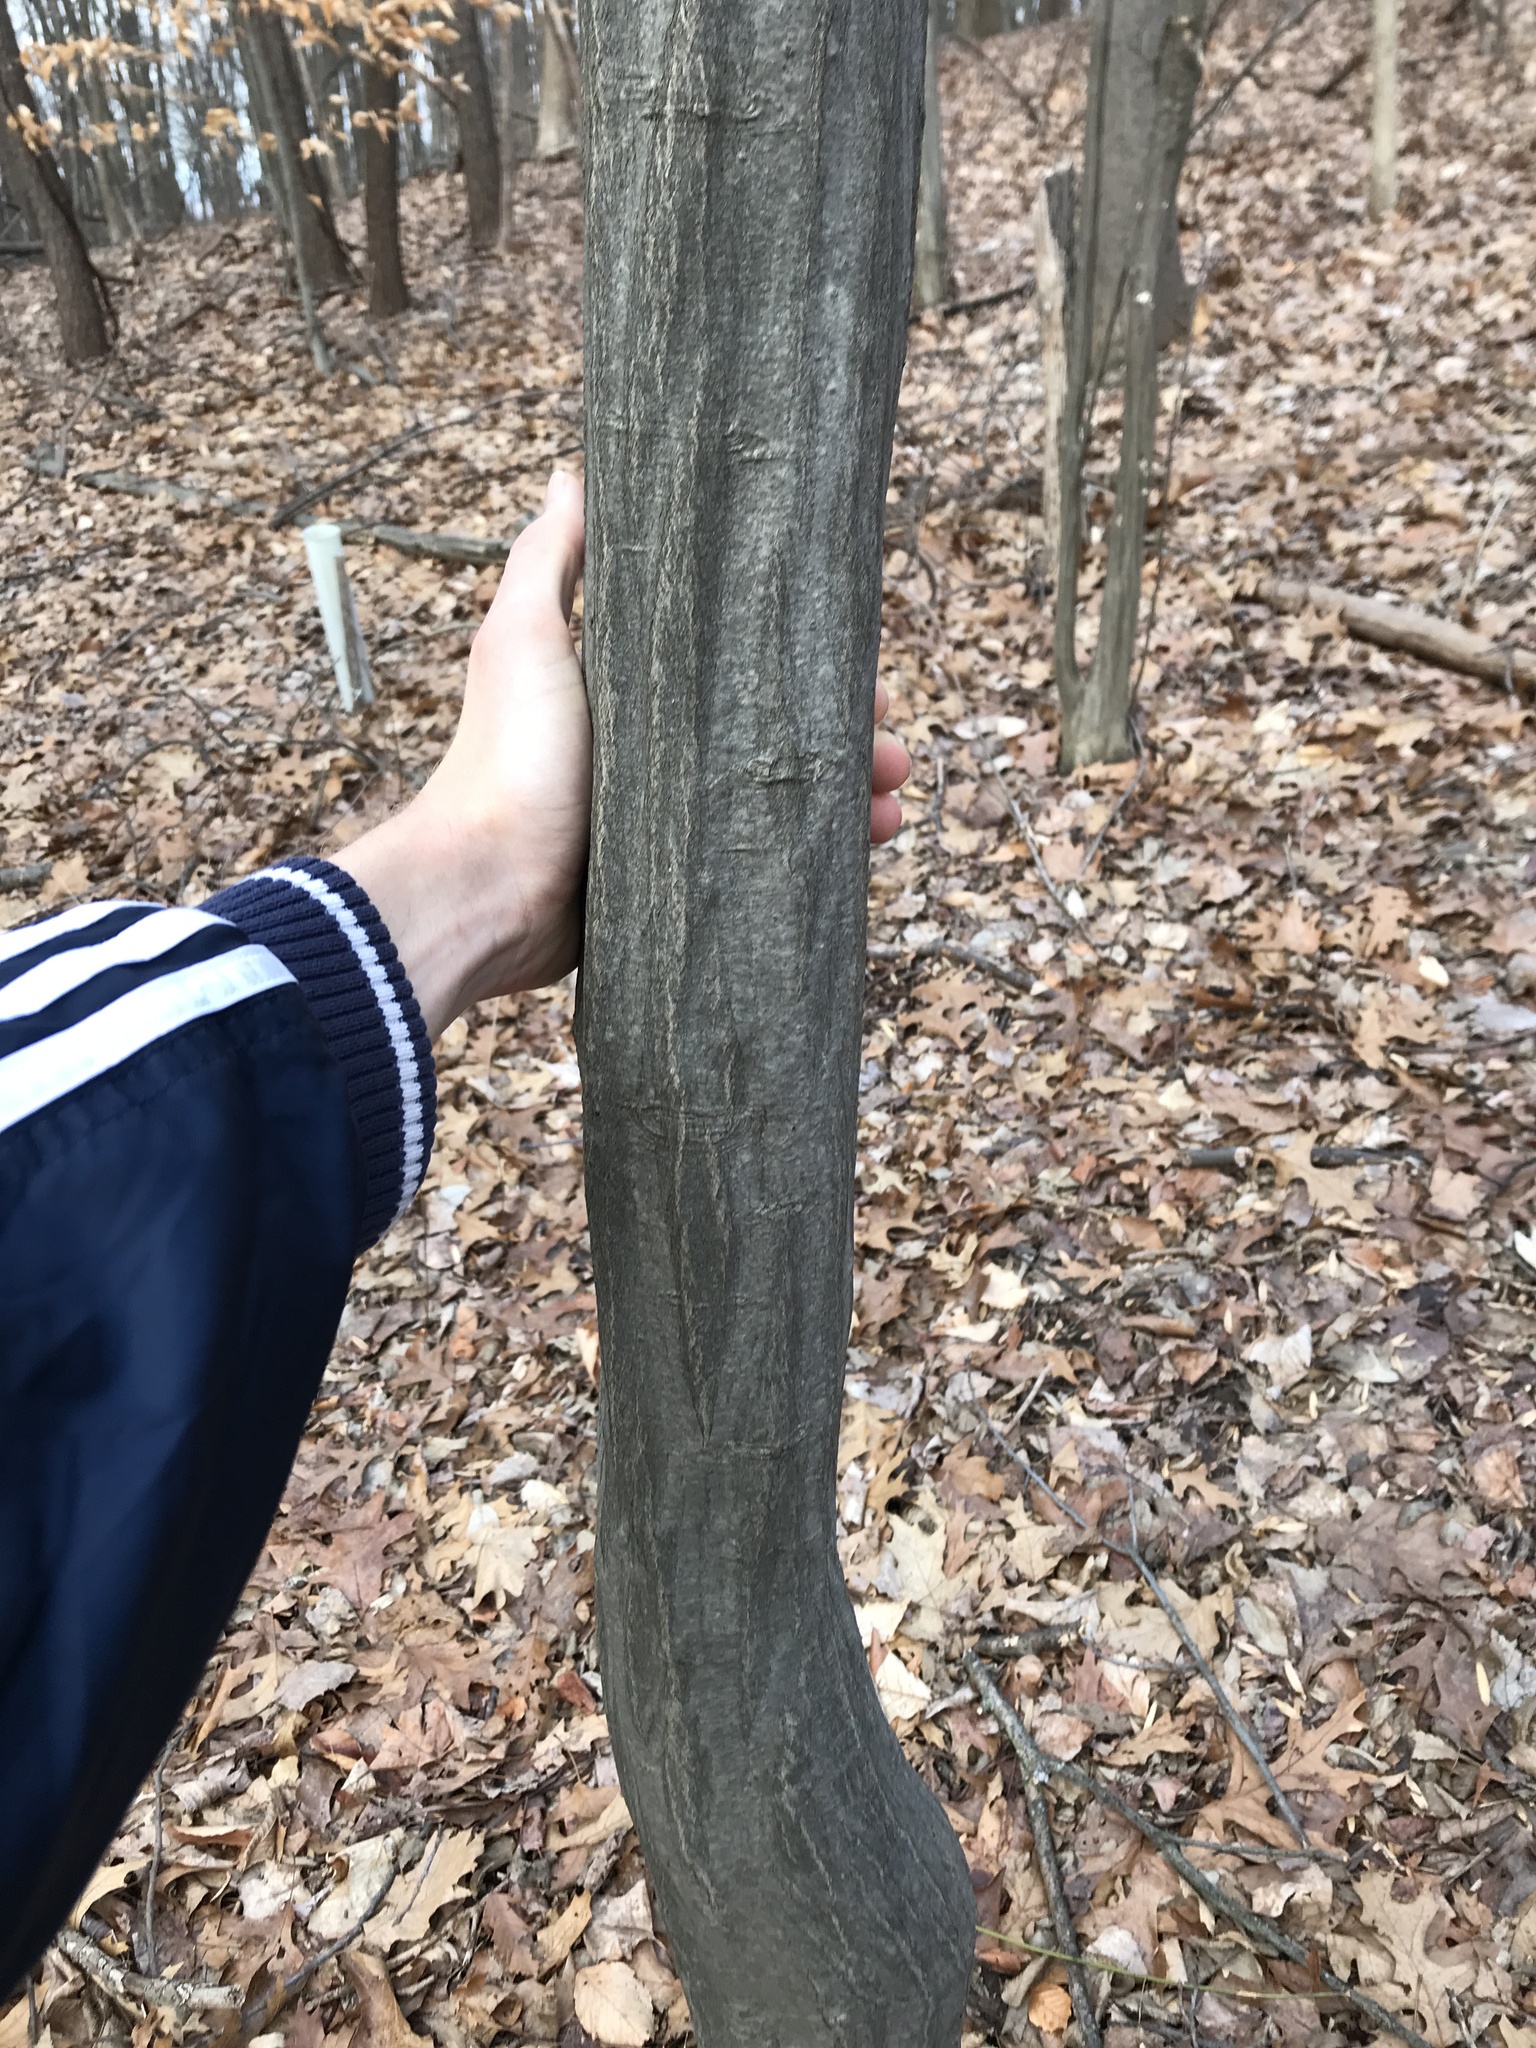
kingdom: Plantae
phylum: Tracheophyta
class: Magnoliopsida
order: Fagales
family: Betulaceae
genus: Carpinus
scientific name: Carpinus caroliniana
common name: American hornbeam
